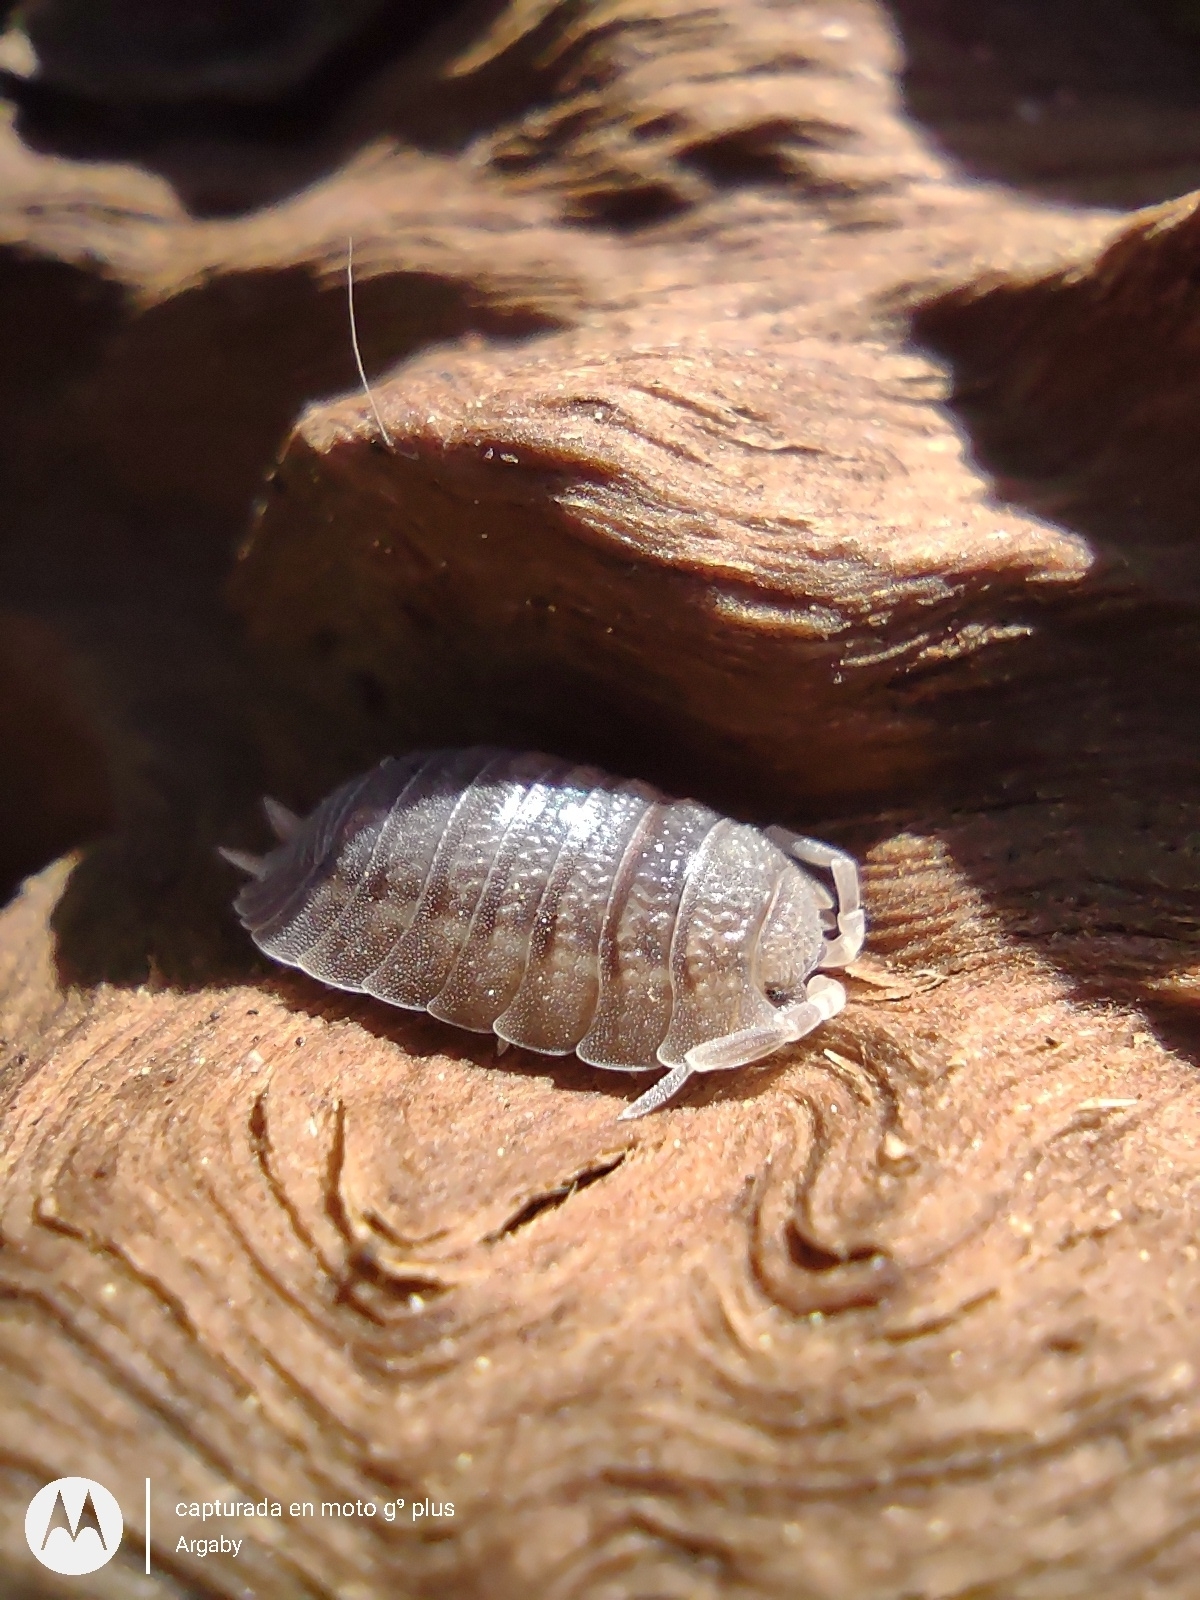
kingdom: Animalia
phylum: Arthropoda
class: Malacostraca
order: Isopoda
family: Porcellionidae
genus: Porcellio
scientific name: Porcellio dilatatus
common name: Isopod
